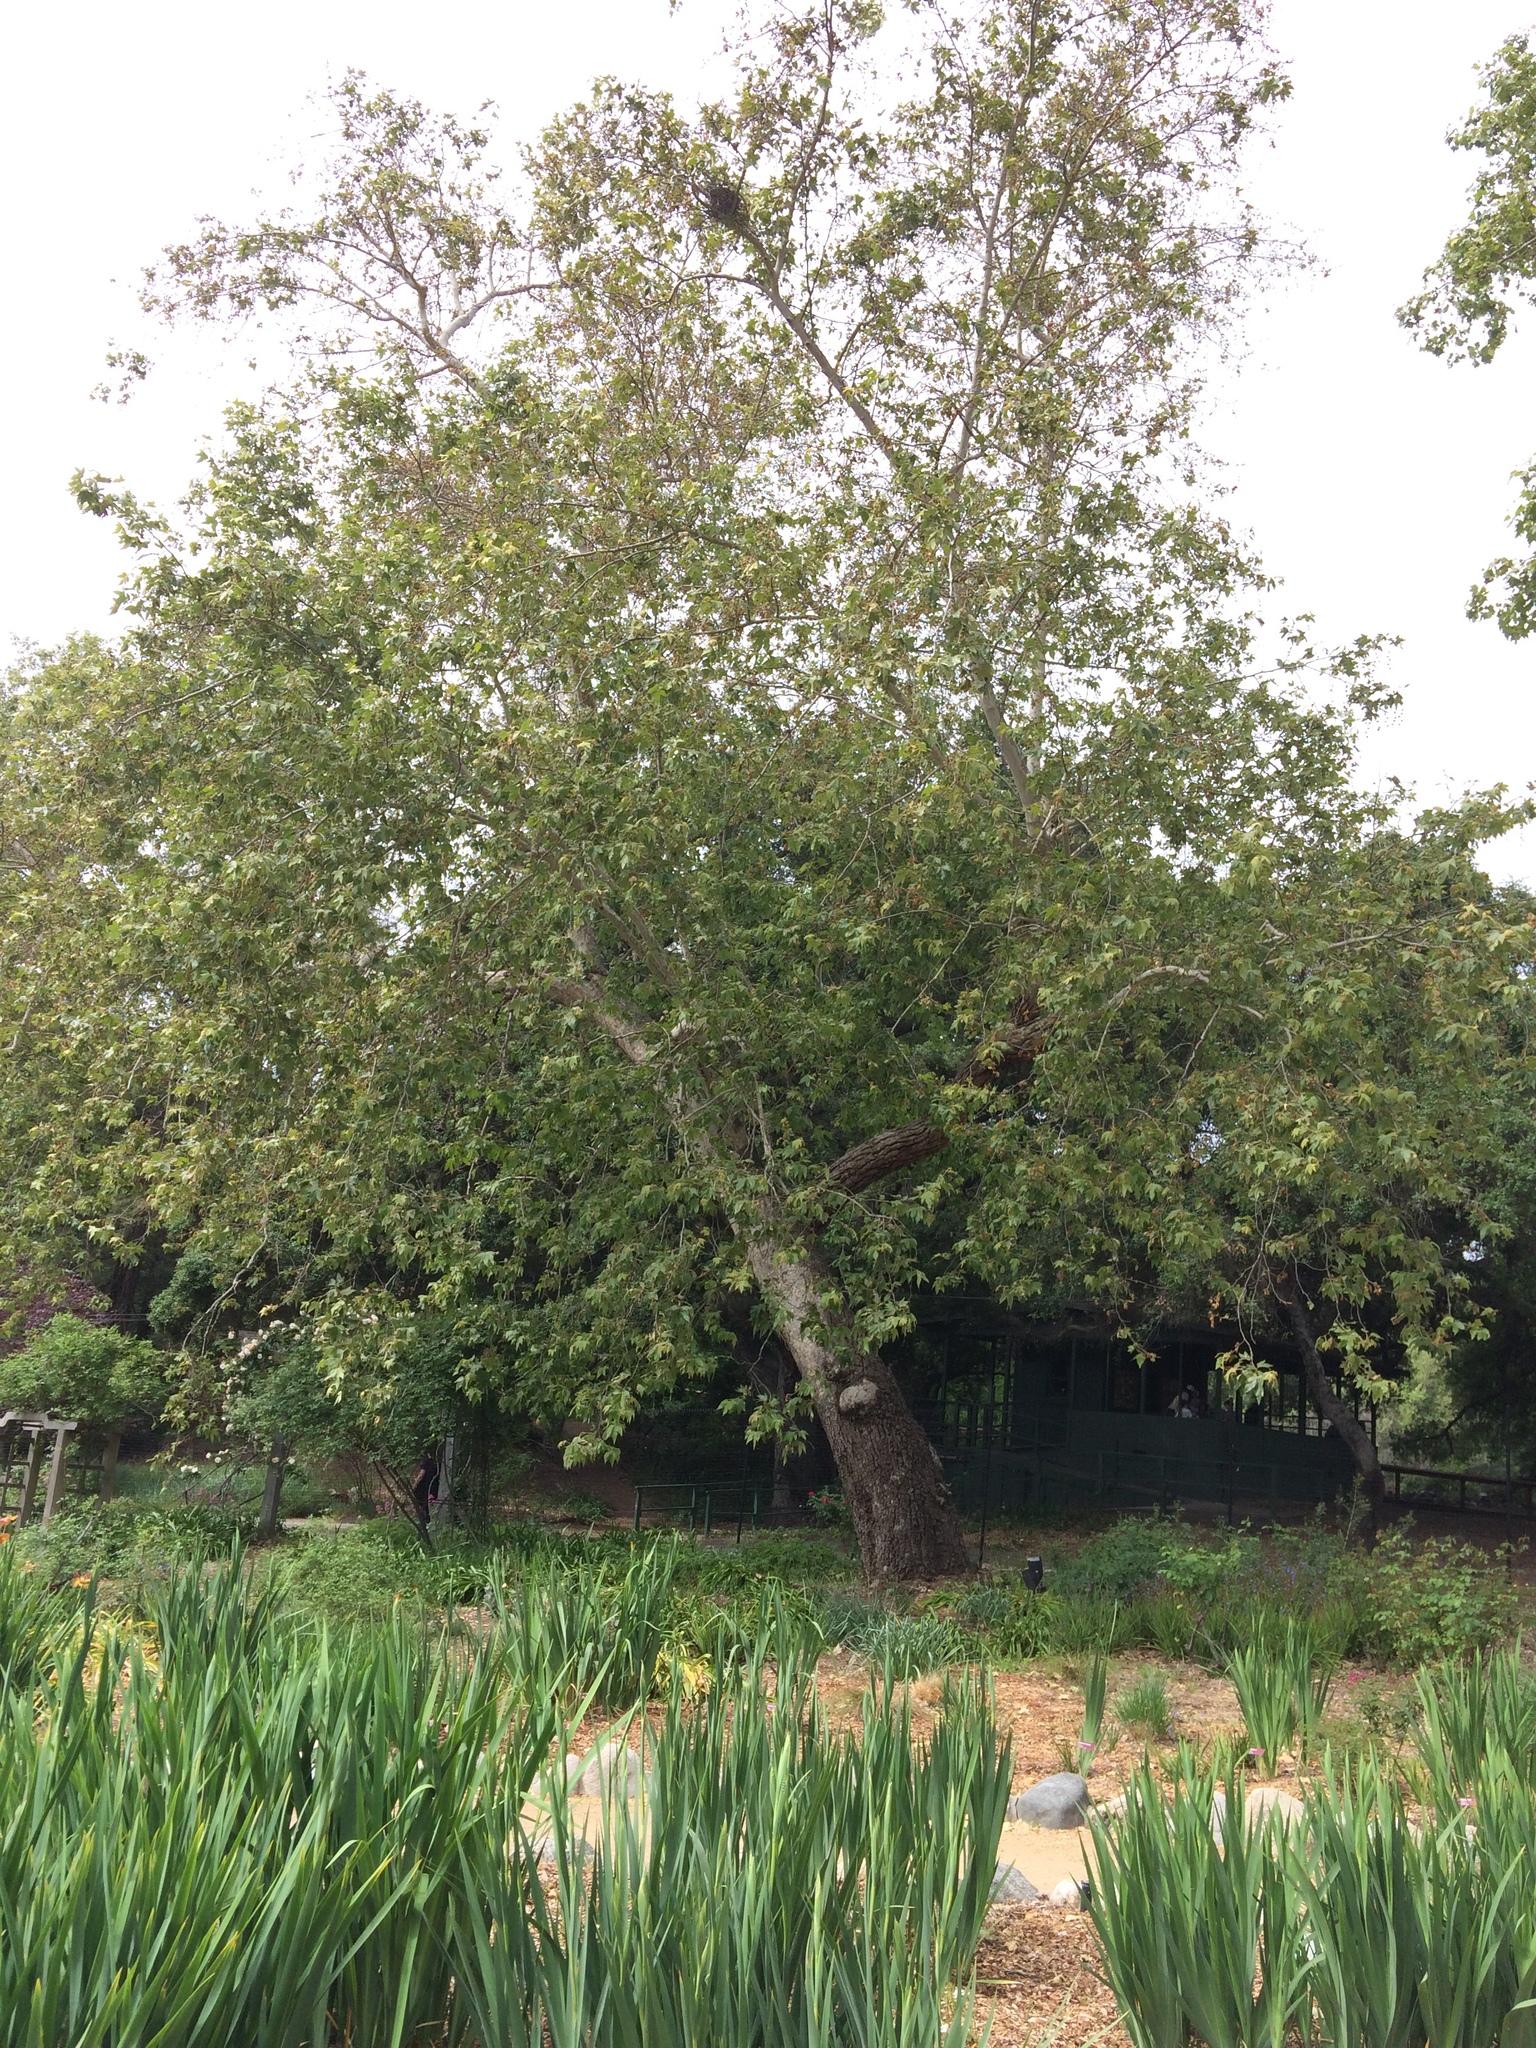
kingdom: Plantae
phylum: Tracheophyta
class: Magnoliopsida
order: Proteales
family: Platanaceae
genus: Platanus
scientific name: Platanus racemosa
